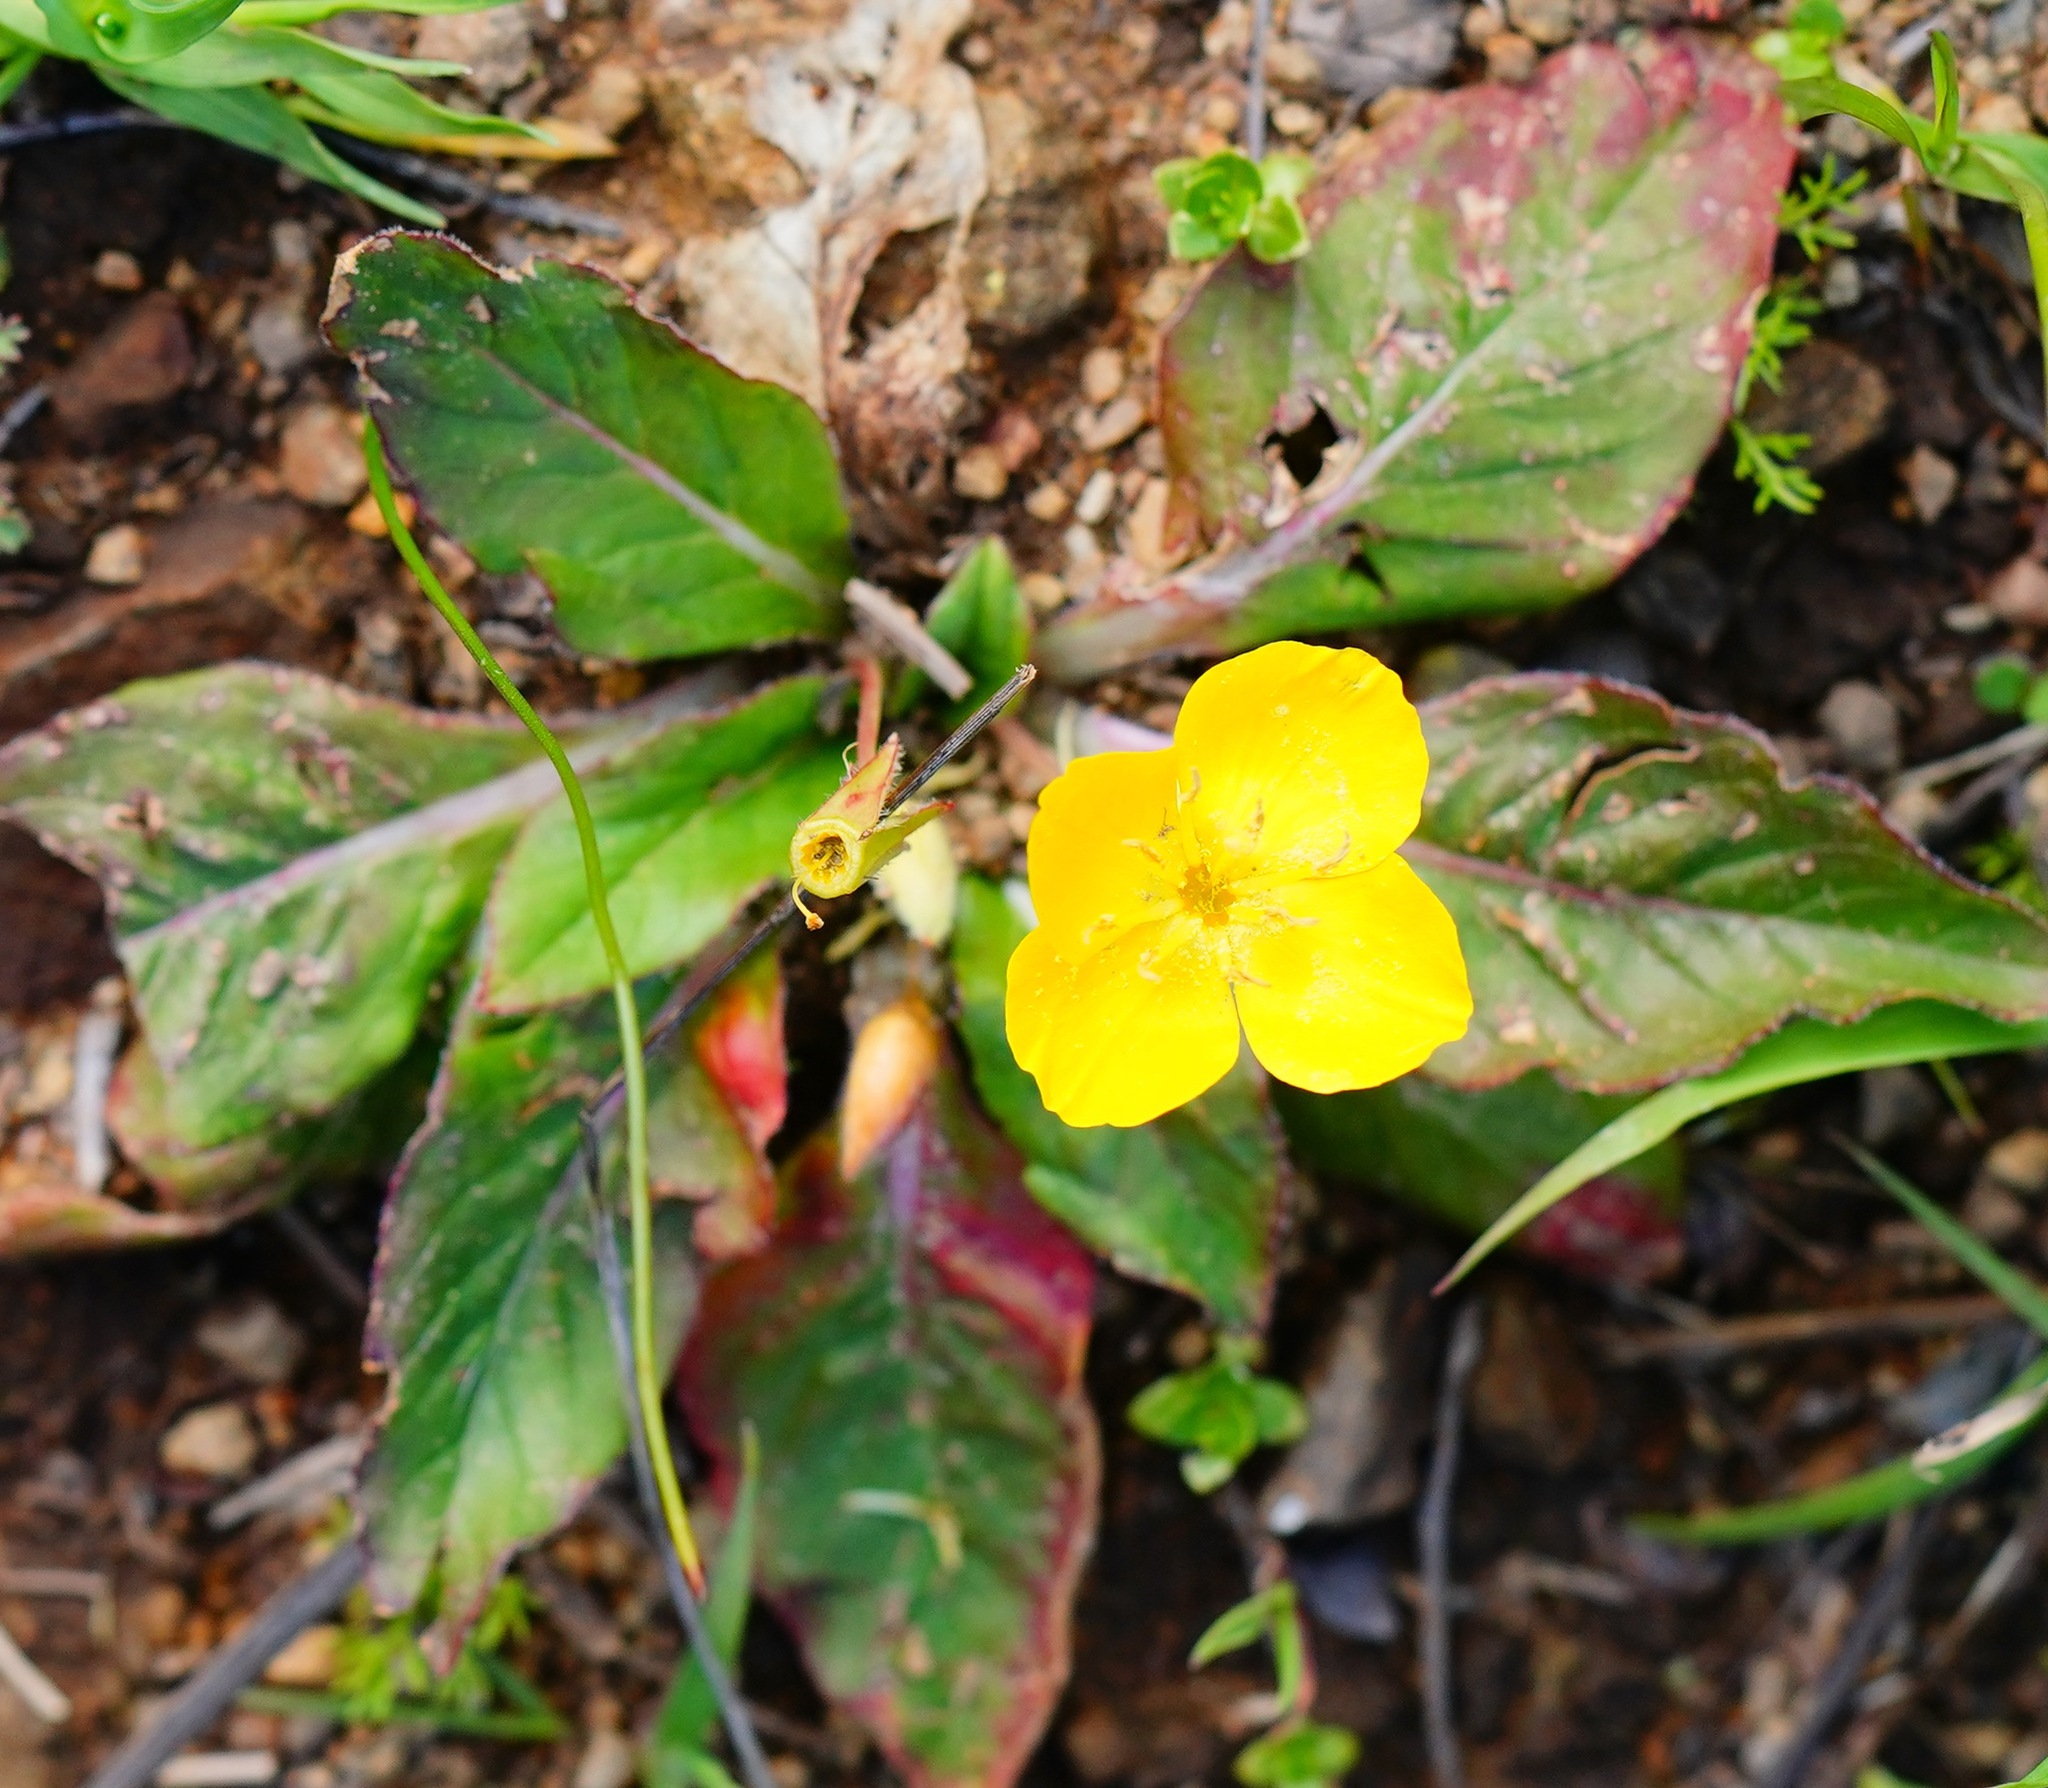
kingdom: Plantae
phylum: Tracheophyta
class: Magnoliopsida
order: Myrtales
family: Onagraceae
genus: Taraxia
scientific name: Taraxia ovata
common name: Goldeneggs
